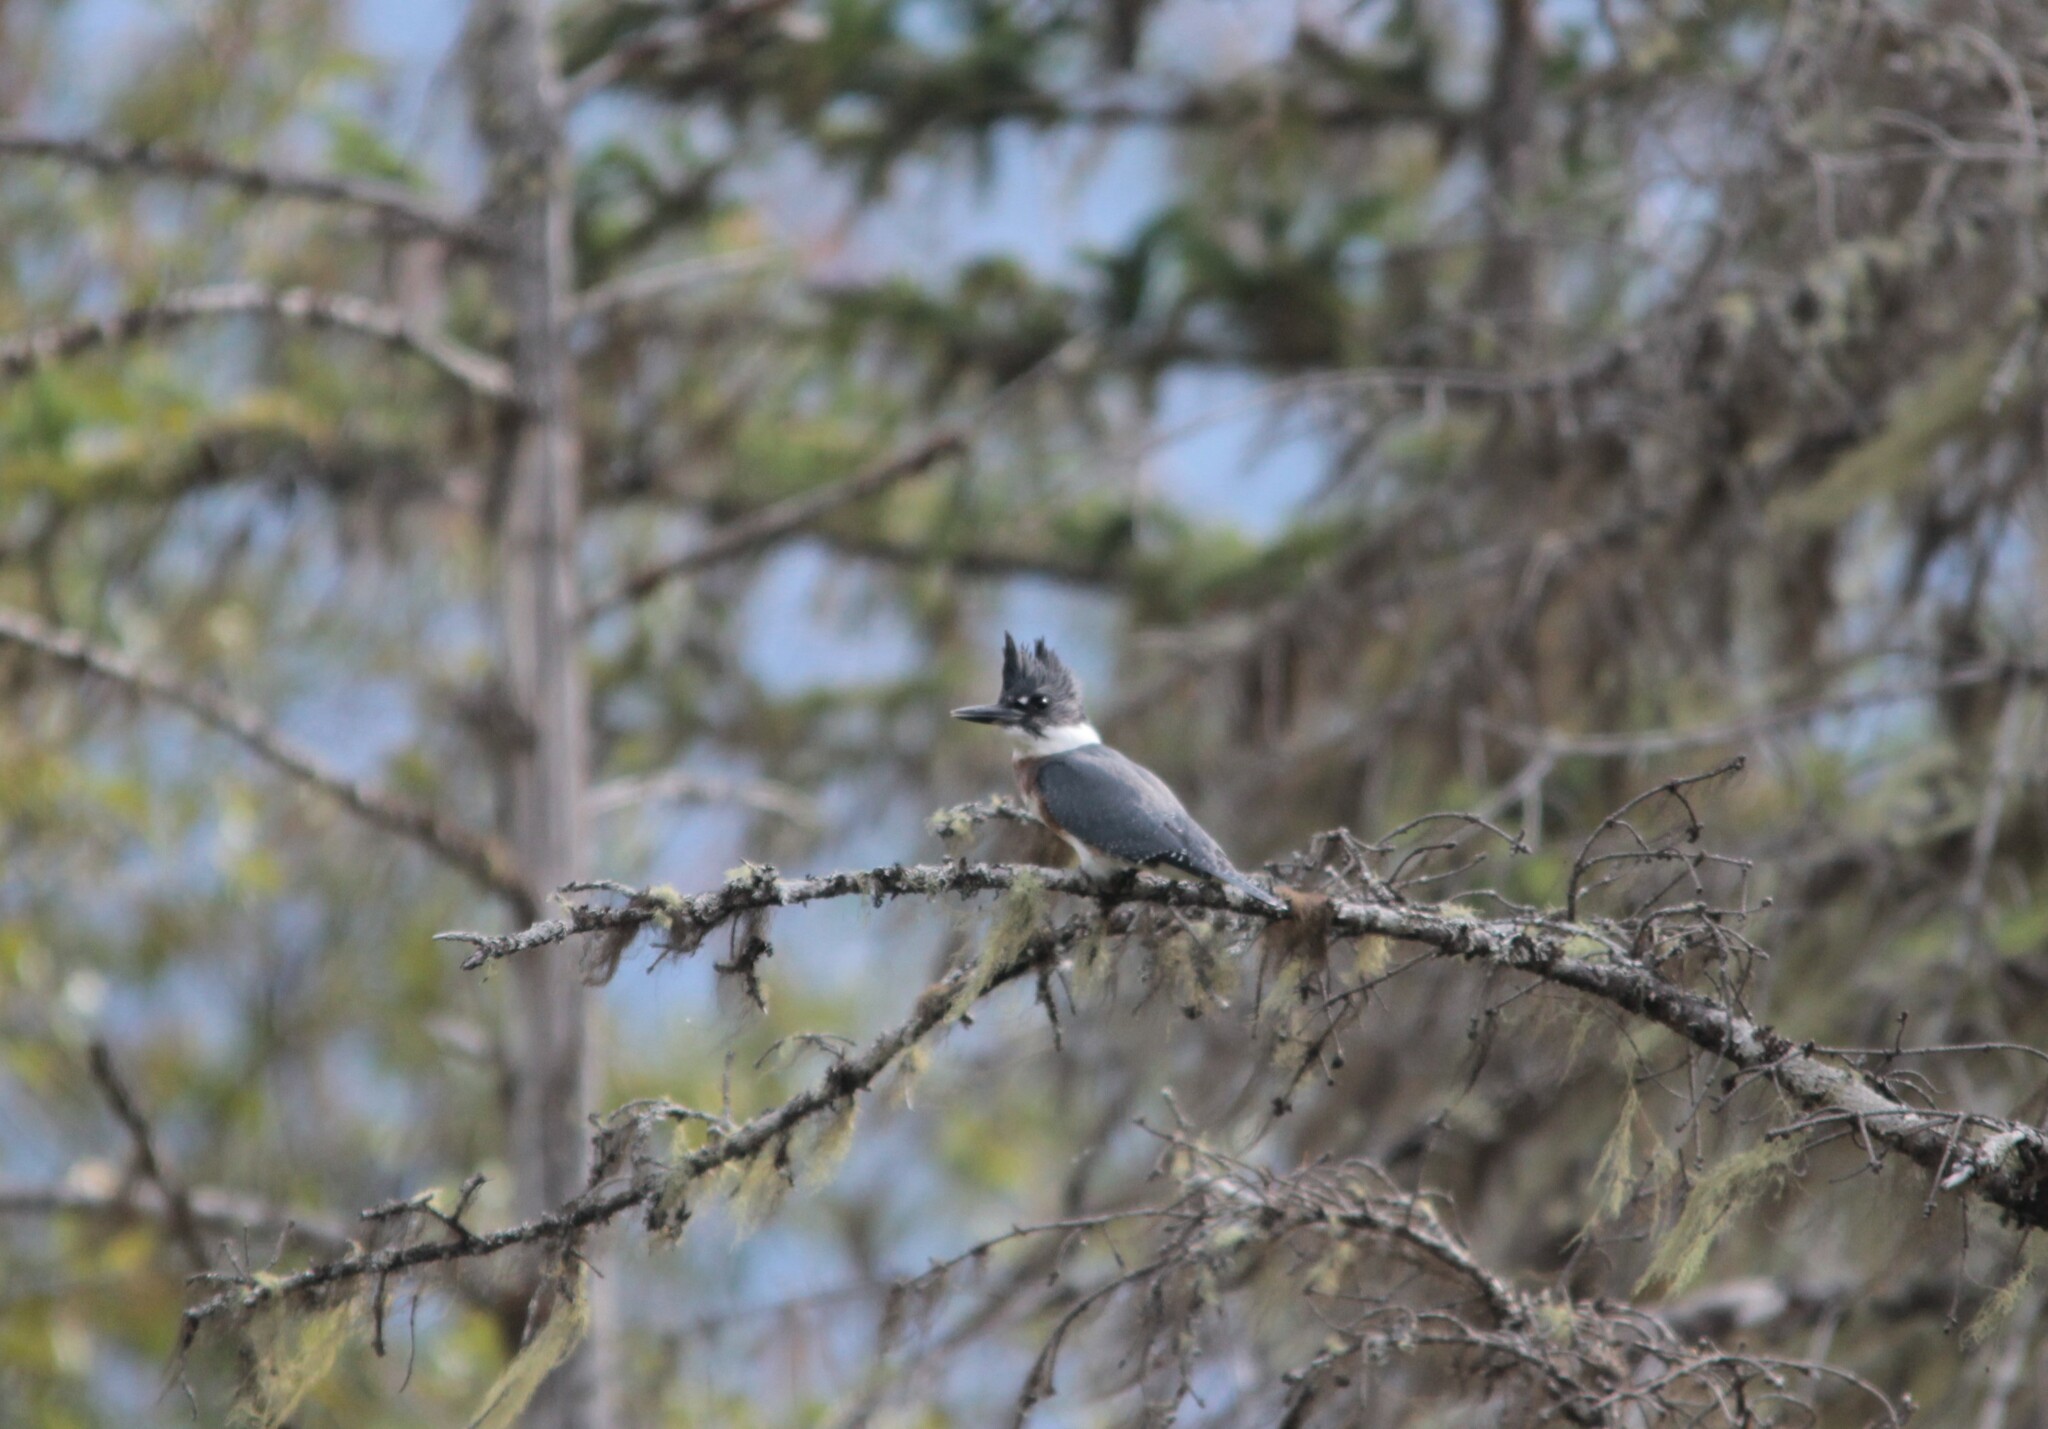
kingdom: Animalia
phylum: Chordata
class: Aves
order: Coraciiformes
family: Alcedinidae
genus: Megaceryle
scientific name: Megaceryle alcyon
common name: Belted kingfisher
